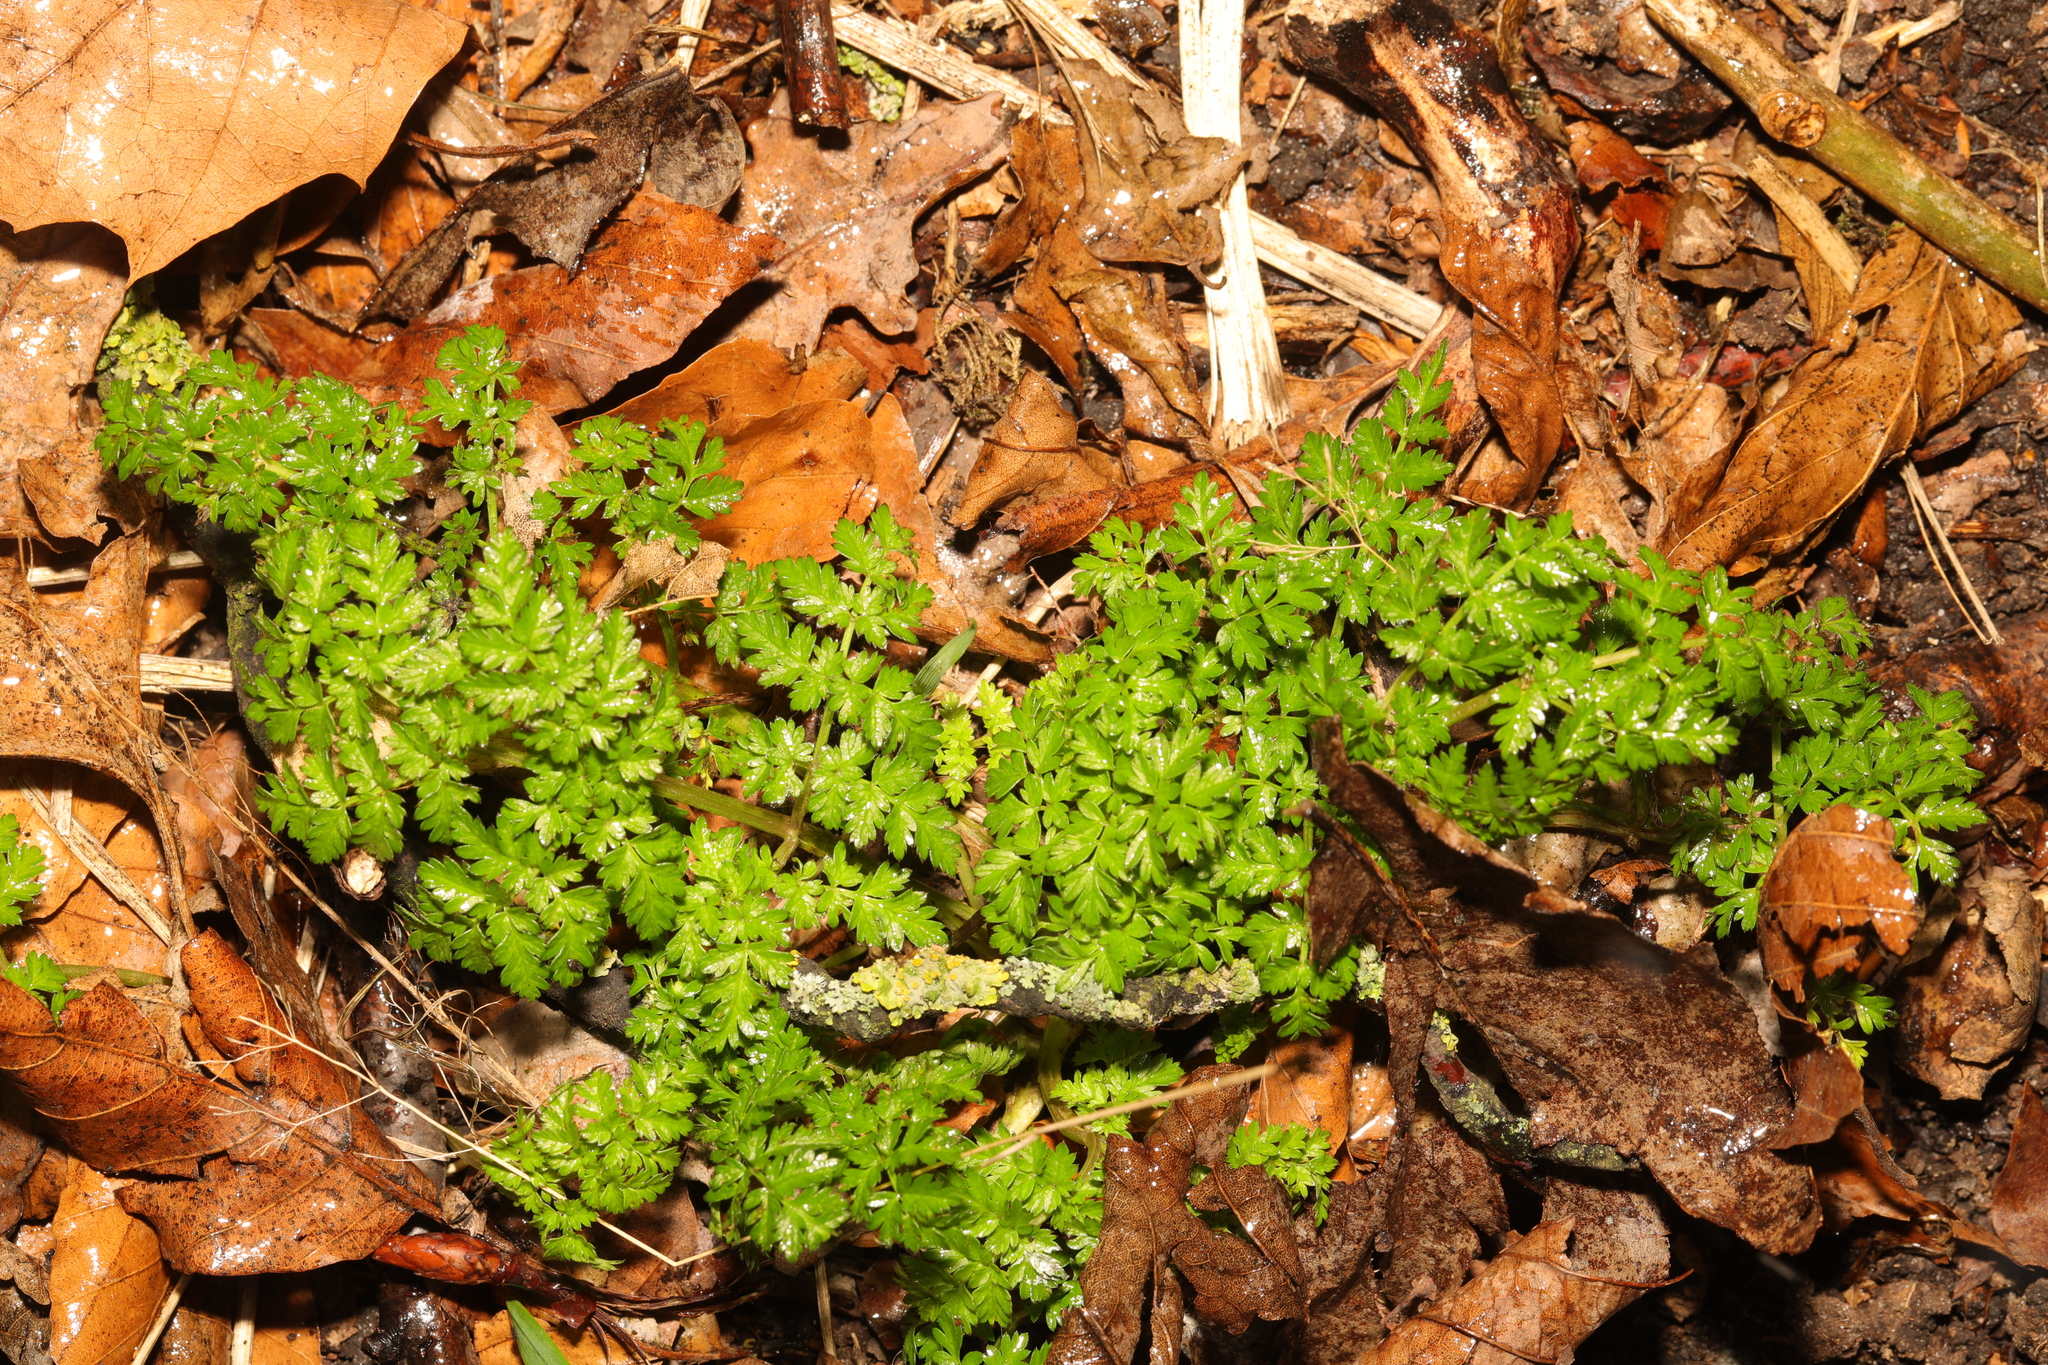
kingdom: Plantae
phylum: Tracheophyta
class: Magnoliopsida
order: Apiales
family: Apiaceae
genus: Anthriscus
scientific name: Anthriscus sylvestris
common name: Cow parsley
